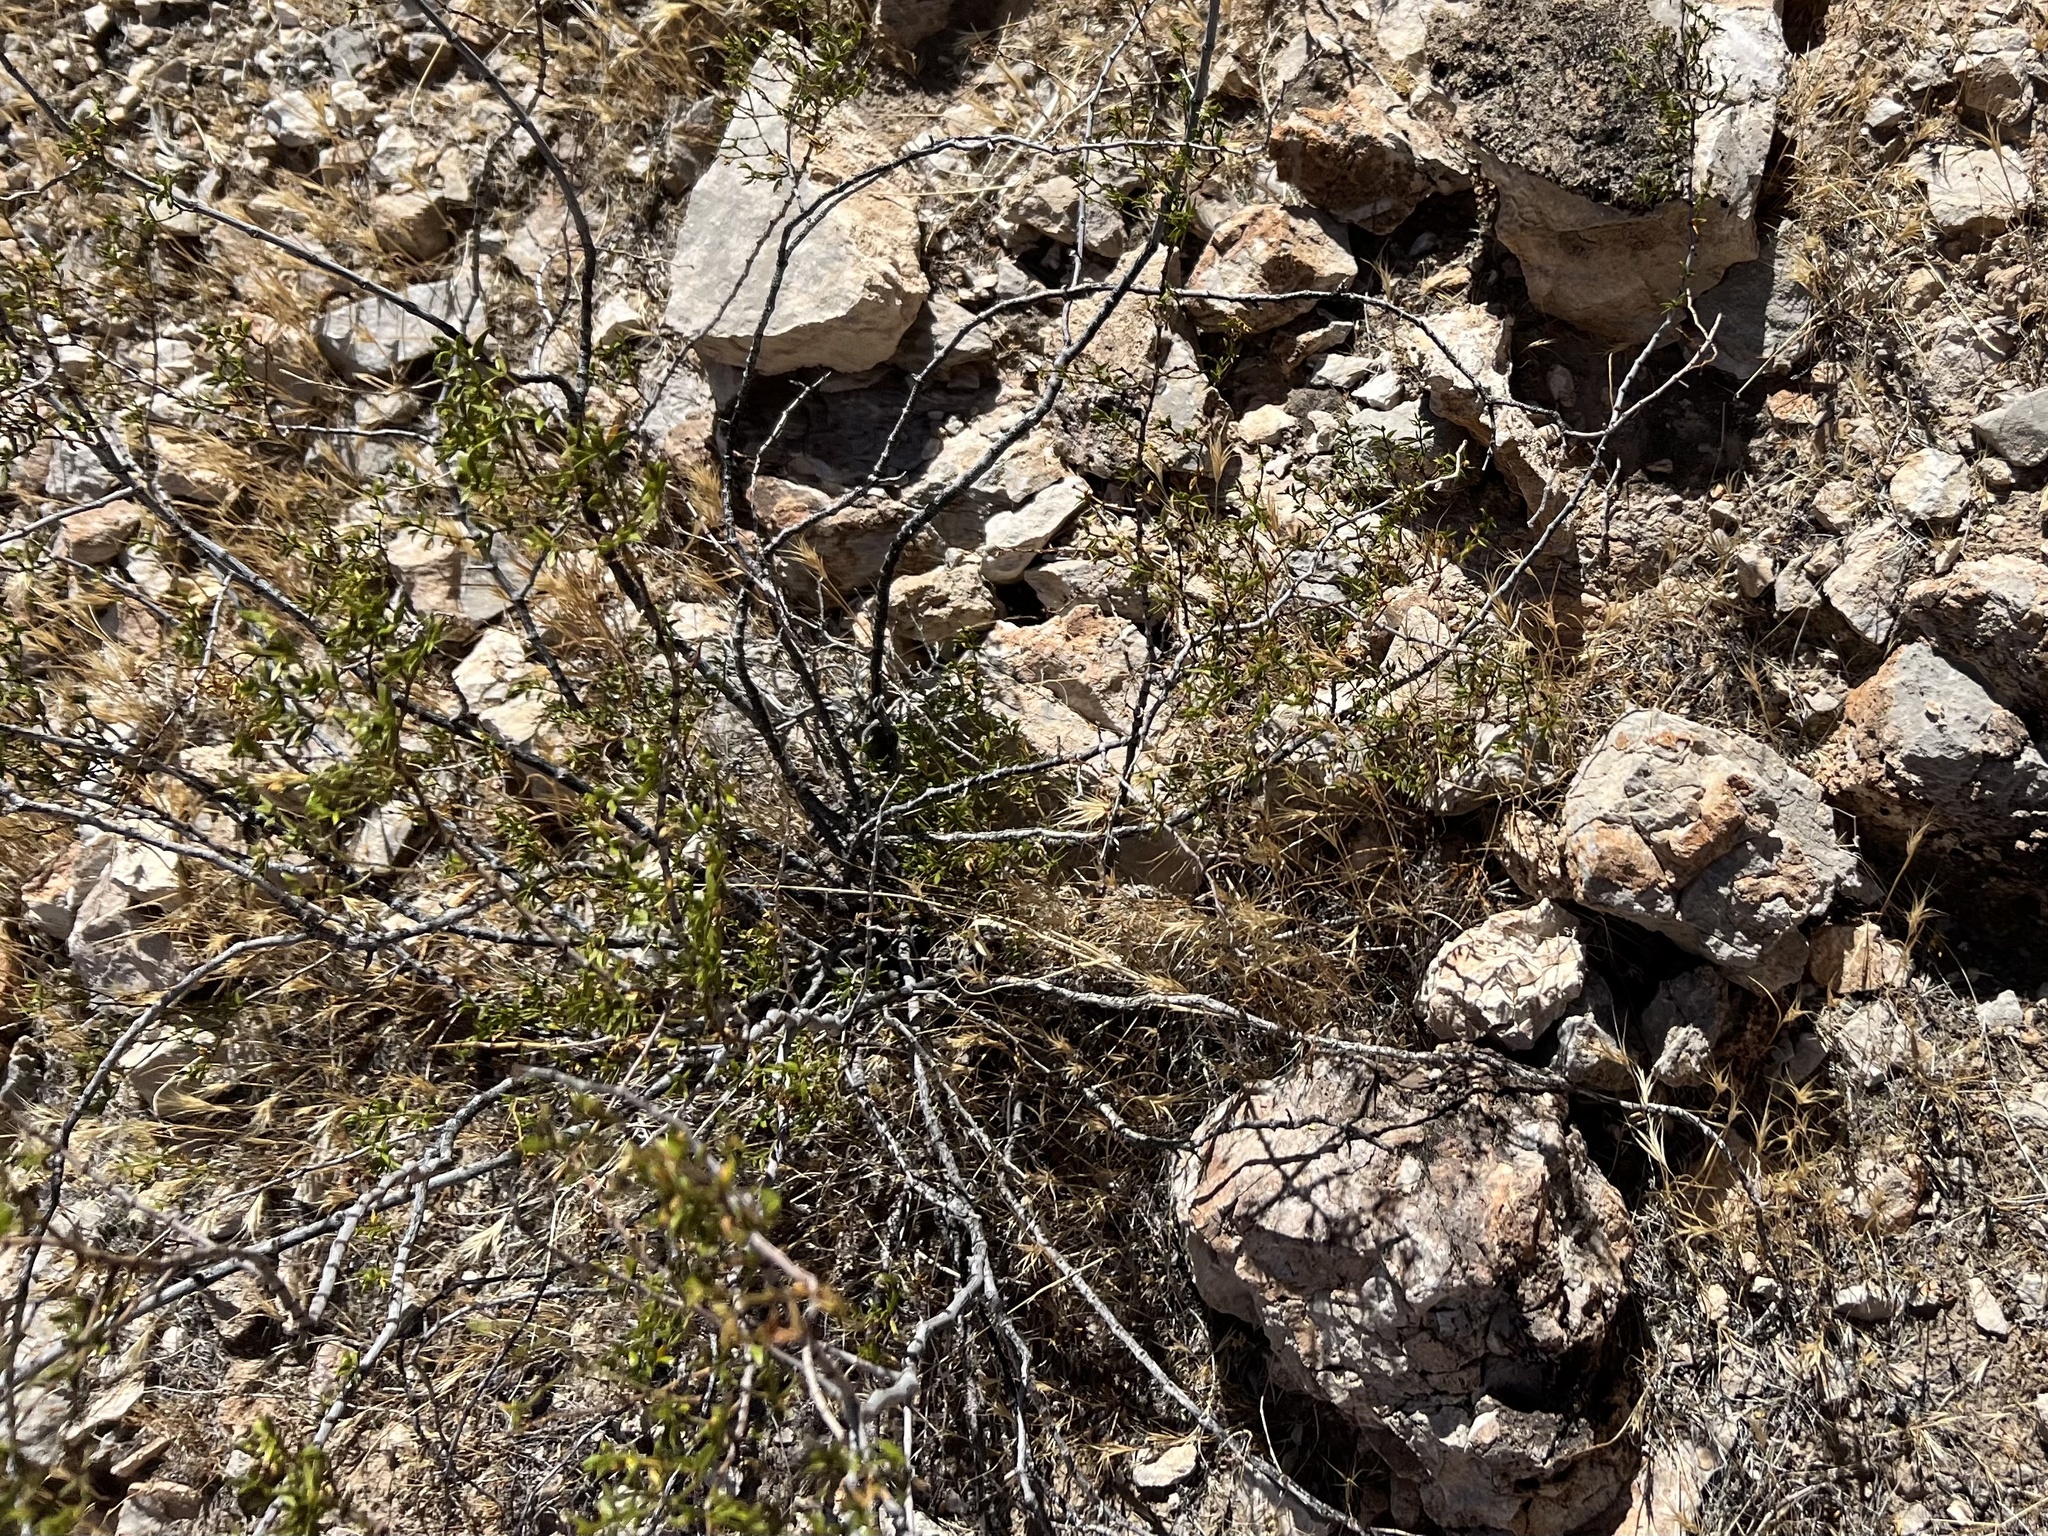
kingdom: Plantae
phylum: Tracheophyta
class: Magnoliopsida
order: Zygophyllales
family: Zygophyllaceae
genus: Larrea
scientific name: Larrea tridentata
